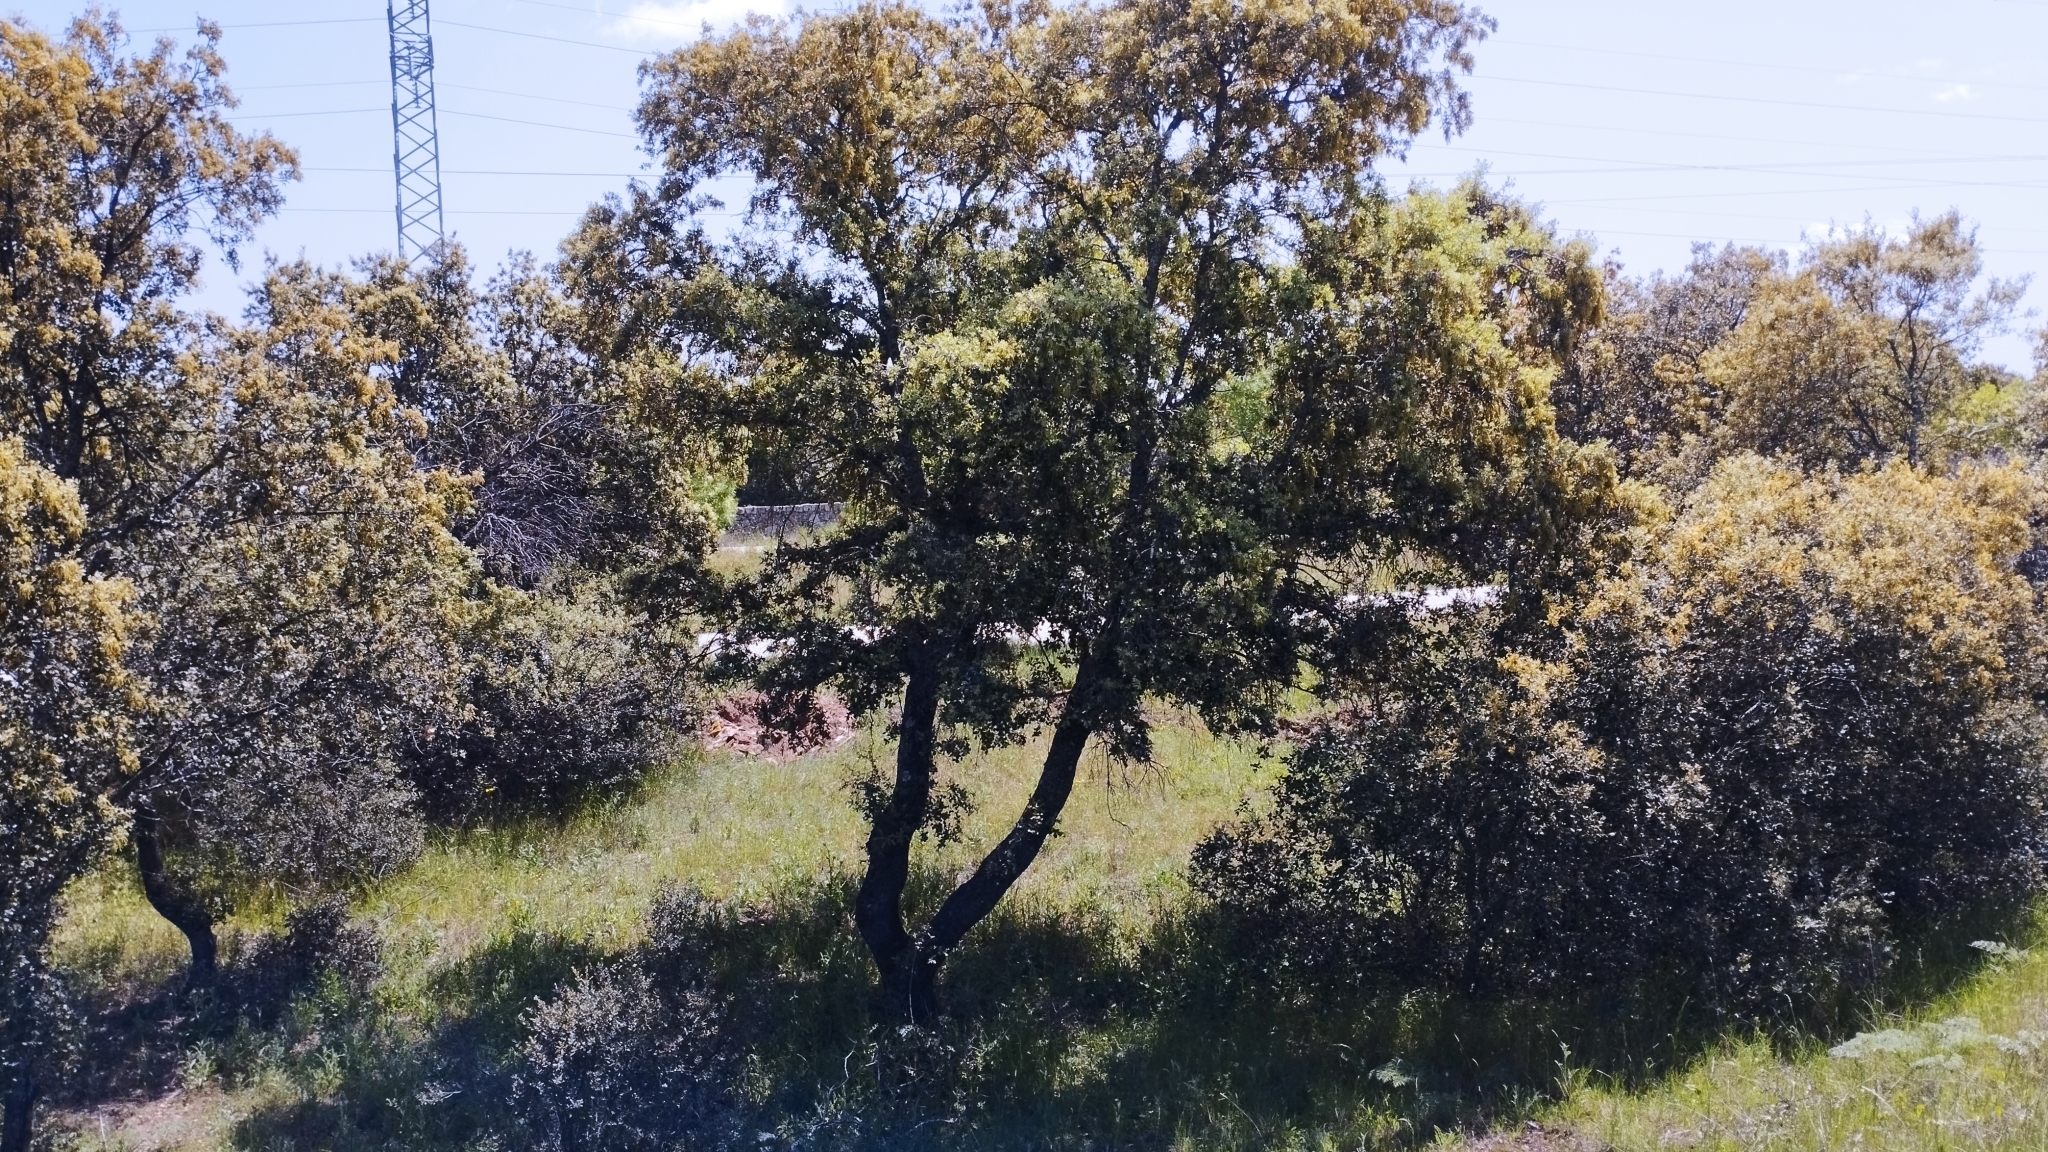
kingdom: Plantae
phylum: Tracheophyta
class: Magnoliopsida
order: Fagales
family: Fagaceae
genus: Quercus
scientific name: Quercus rotundifolia
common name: Holm oak
